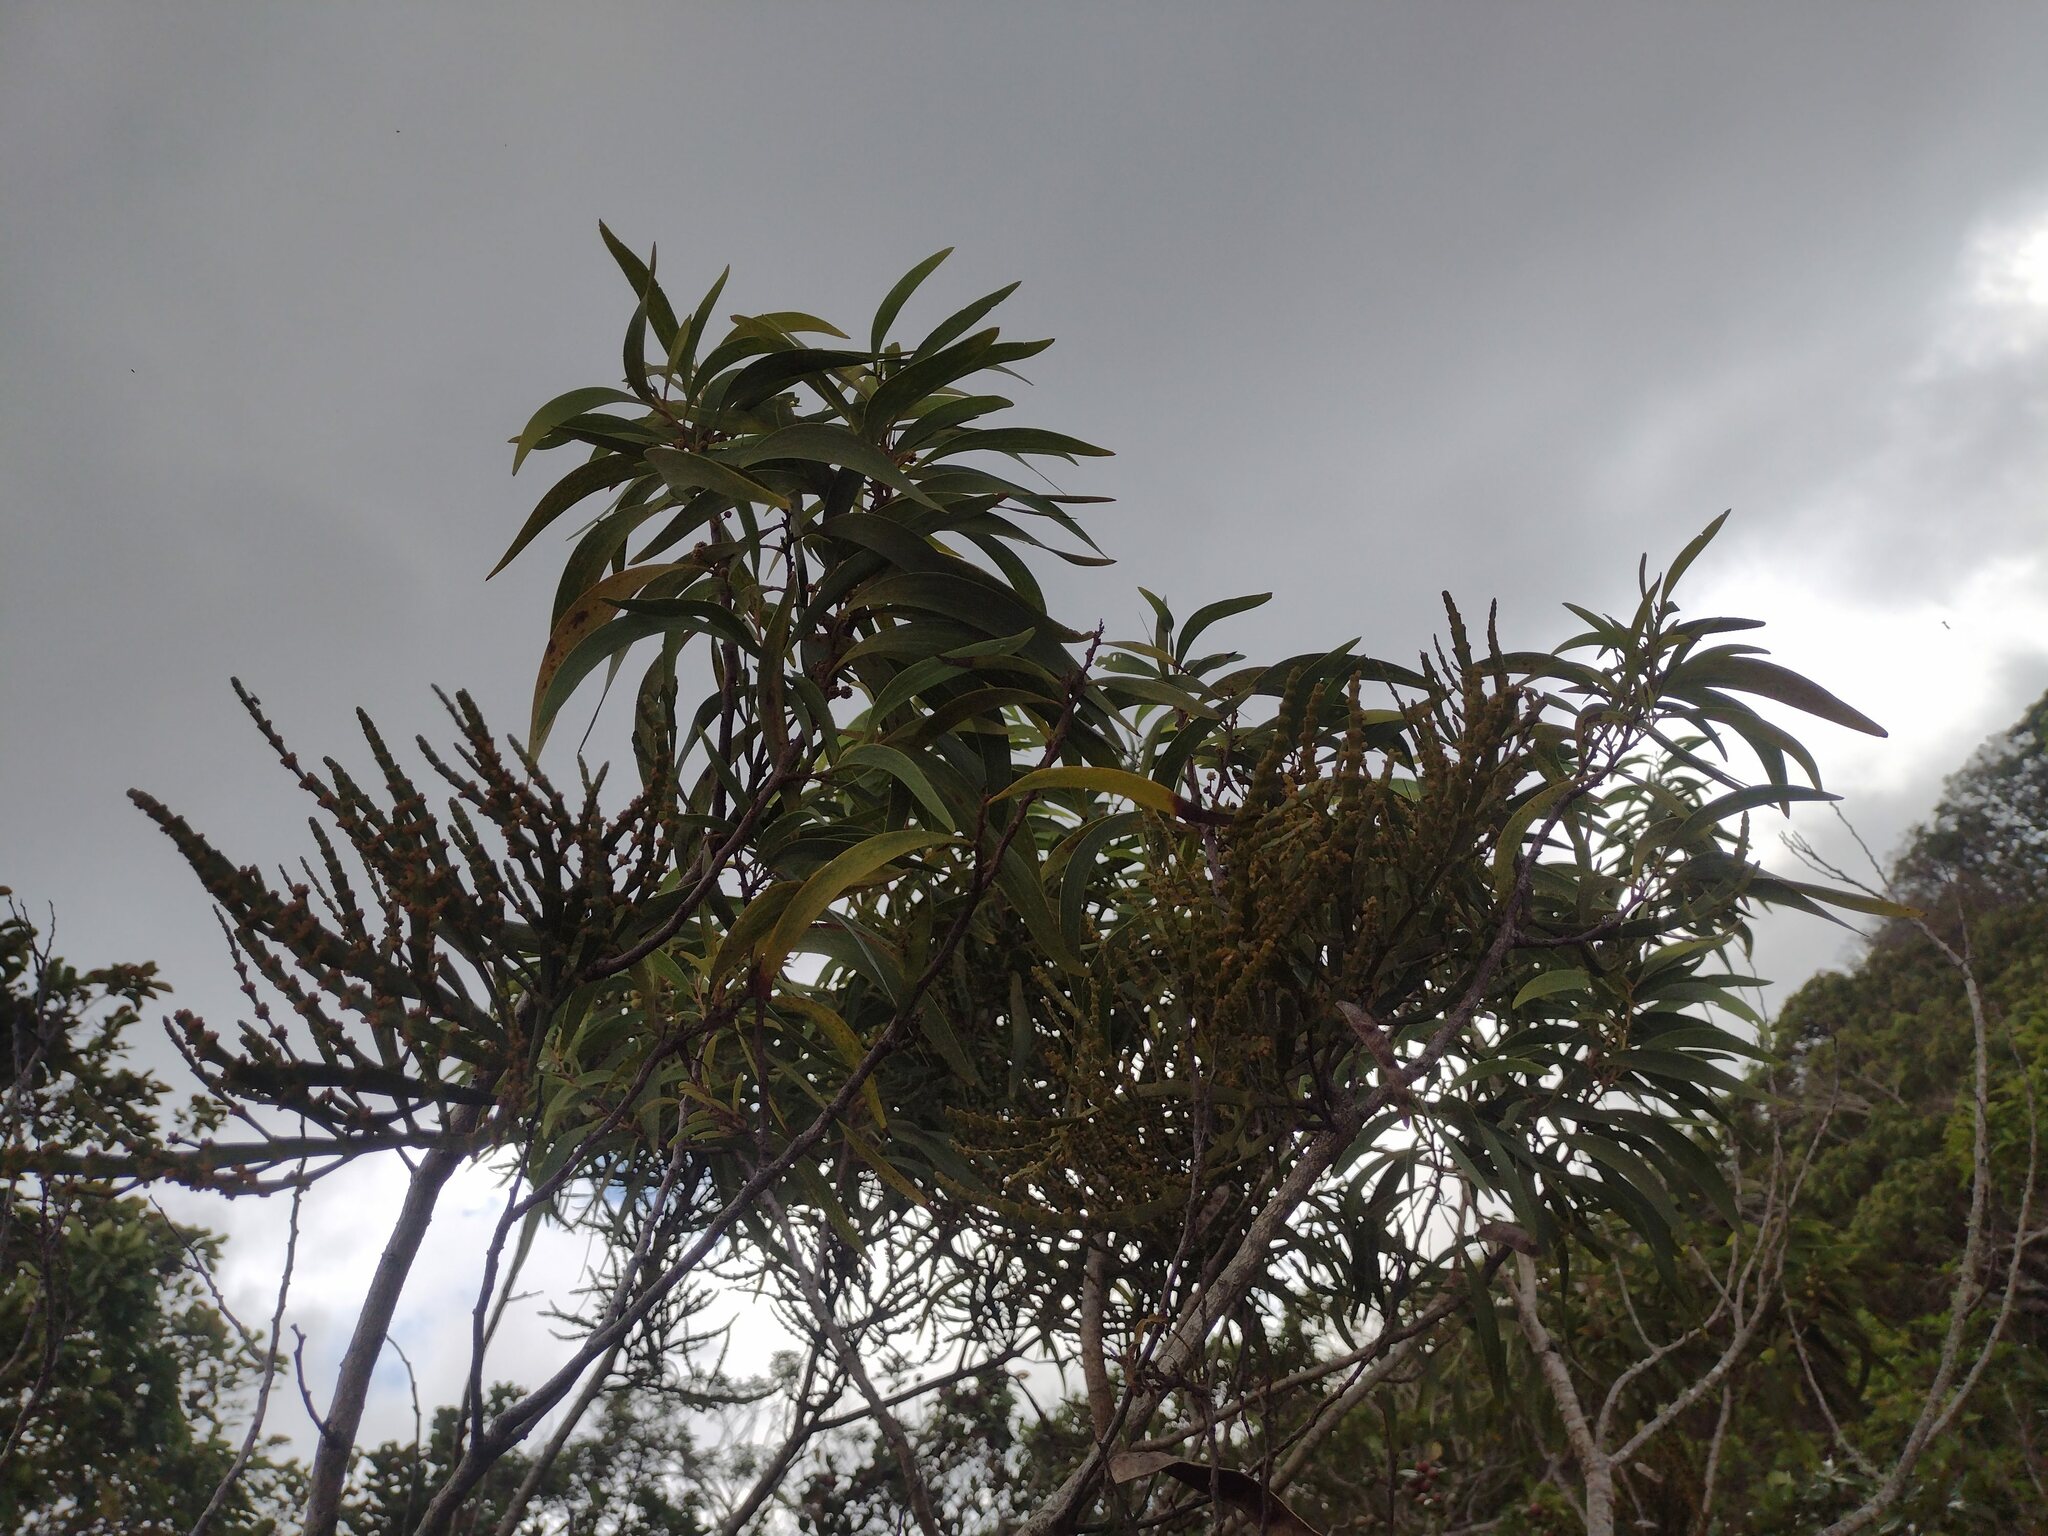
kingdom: Plantae
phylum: Tracheophyta
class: Magnoliopsida
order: Santalales
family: Viscaceae
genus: Korthalsella
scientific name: Korthalsella complanata
